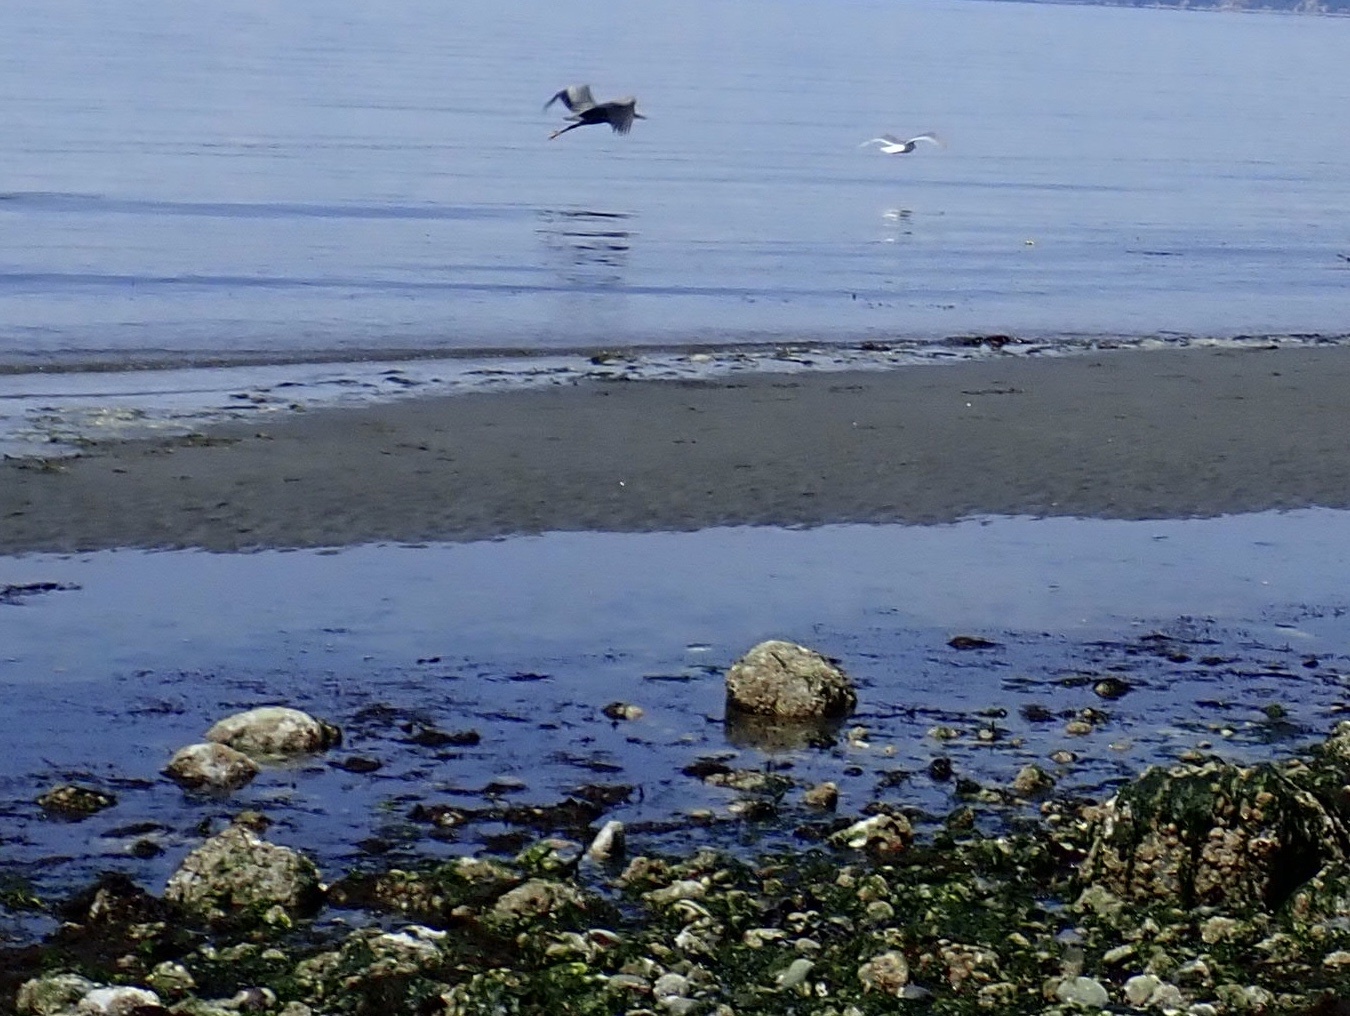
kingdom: Animalia
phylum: Chordata
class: Aves
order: Pelecaniformes
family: Ardeidae
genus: Ardea
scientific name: Ardea herodias
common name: Great blue heron
